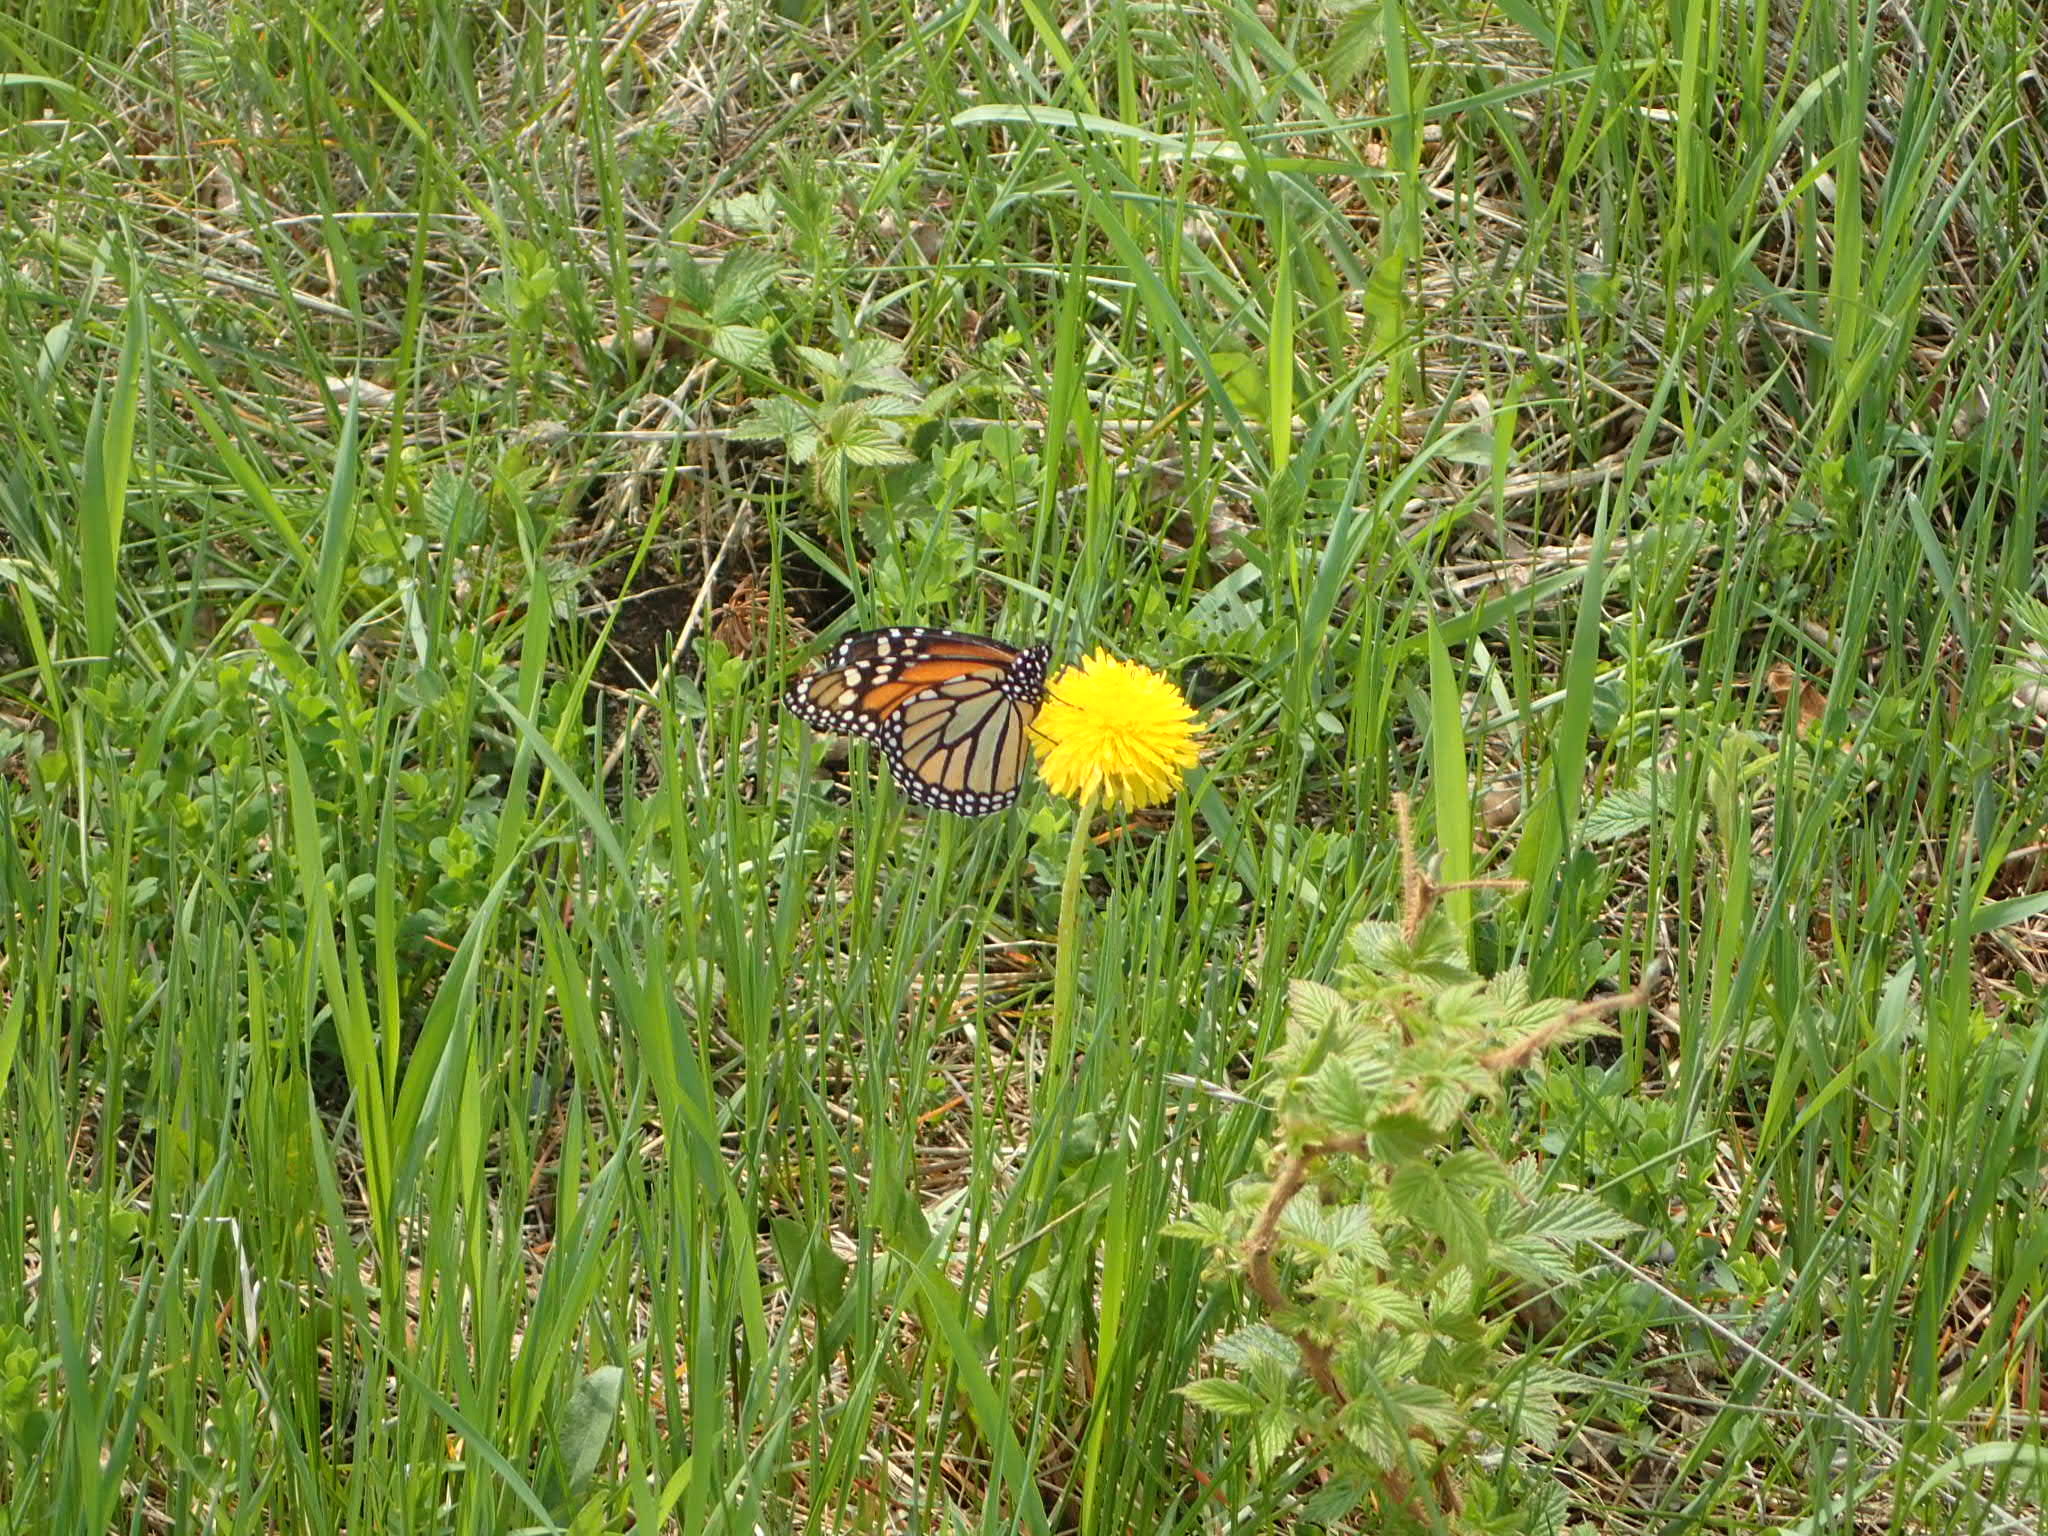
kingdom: Animalia
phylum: Arthropoda
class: Insecta
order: Lepidoptera
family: Nymphalidae
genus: Danaus
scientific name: Danaus plexippus
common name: Monarch
